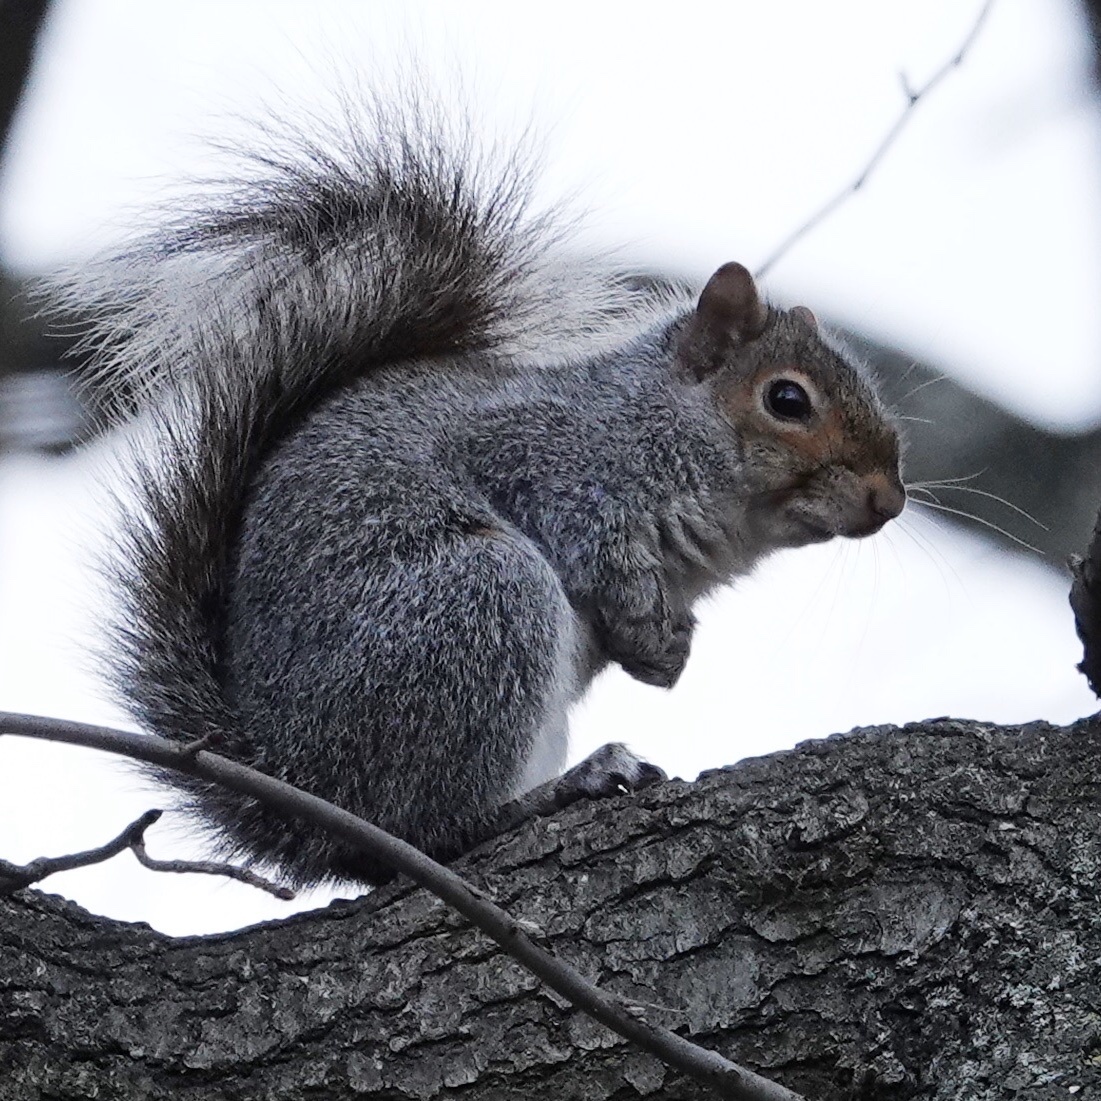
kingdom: Animalia
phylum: Chordata
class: Mammalia
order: Rodentia
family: Sciuridae
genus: Sciurus
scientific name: Sciurus carolinensis
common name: Eastern gray squirrel
